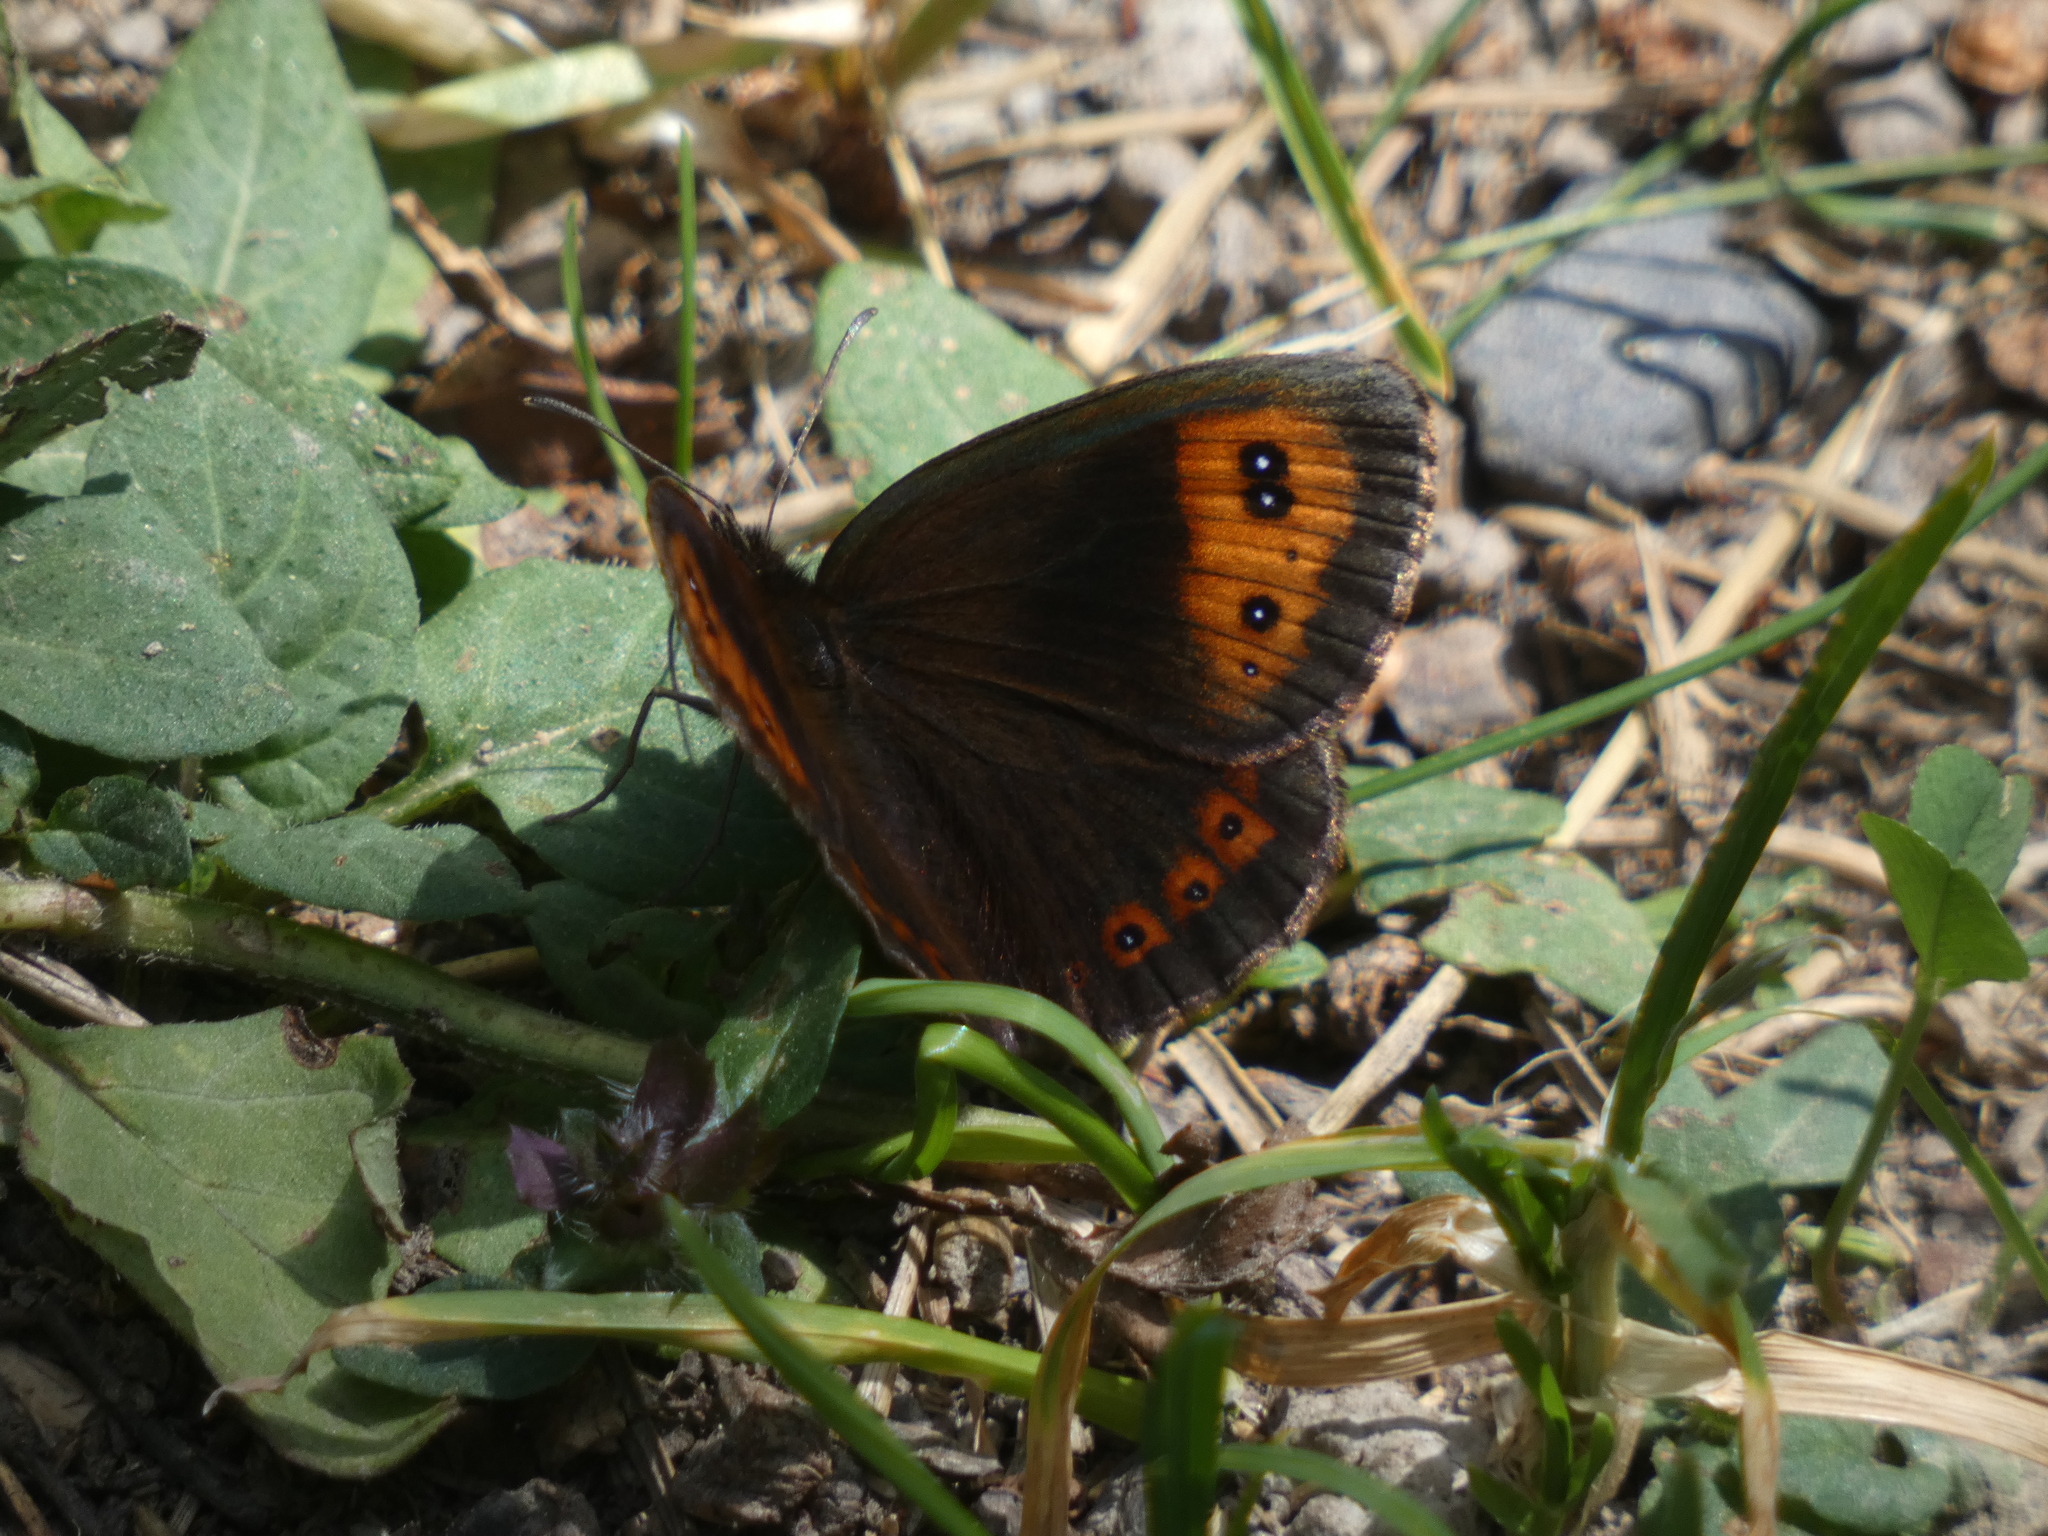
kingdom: Animalia
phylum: Arthropoda
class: Insecta
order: Lepidoptera
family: Nymphalidae
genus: Erebia
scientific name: Erebia neoridas
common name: Autumn ringlet
